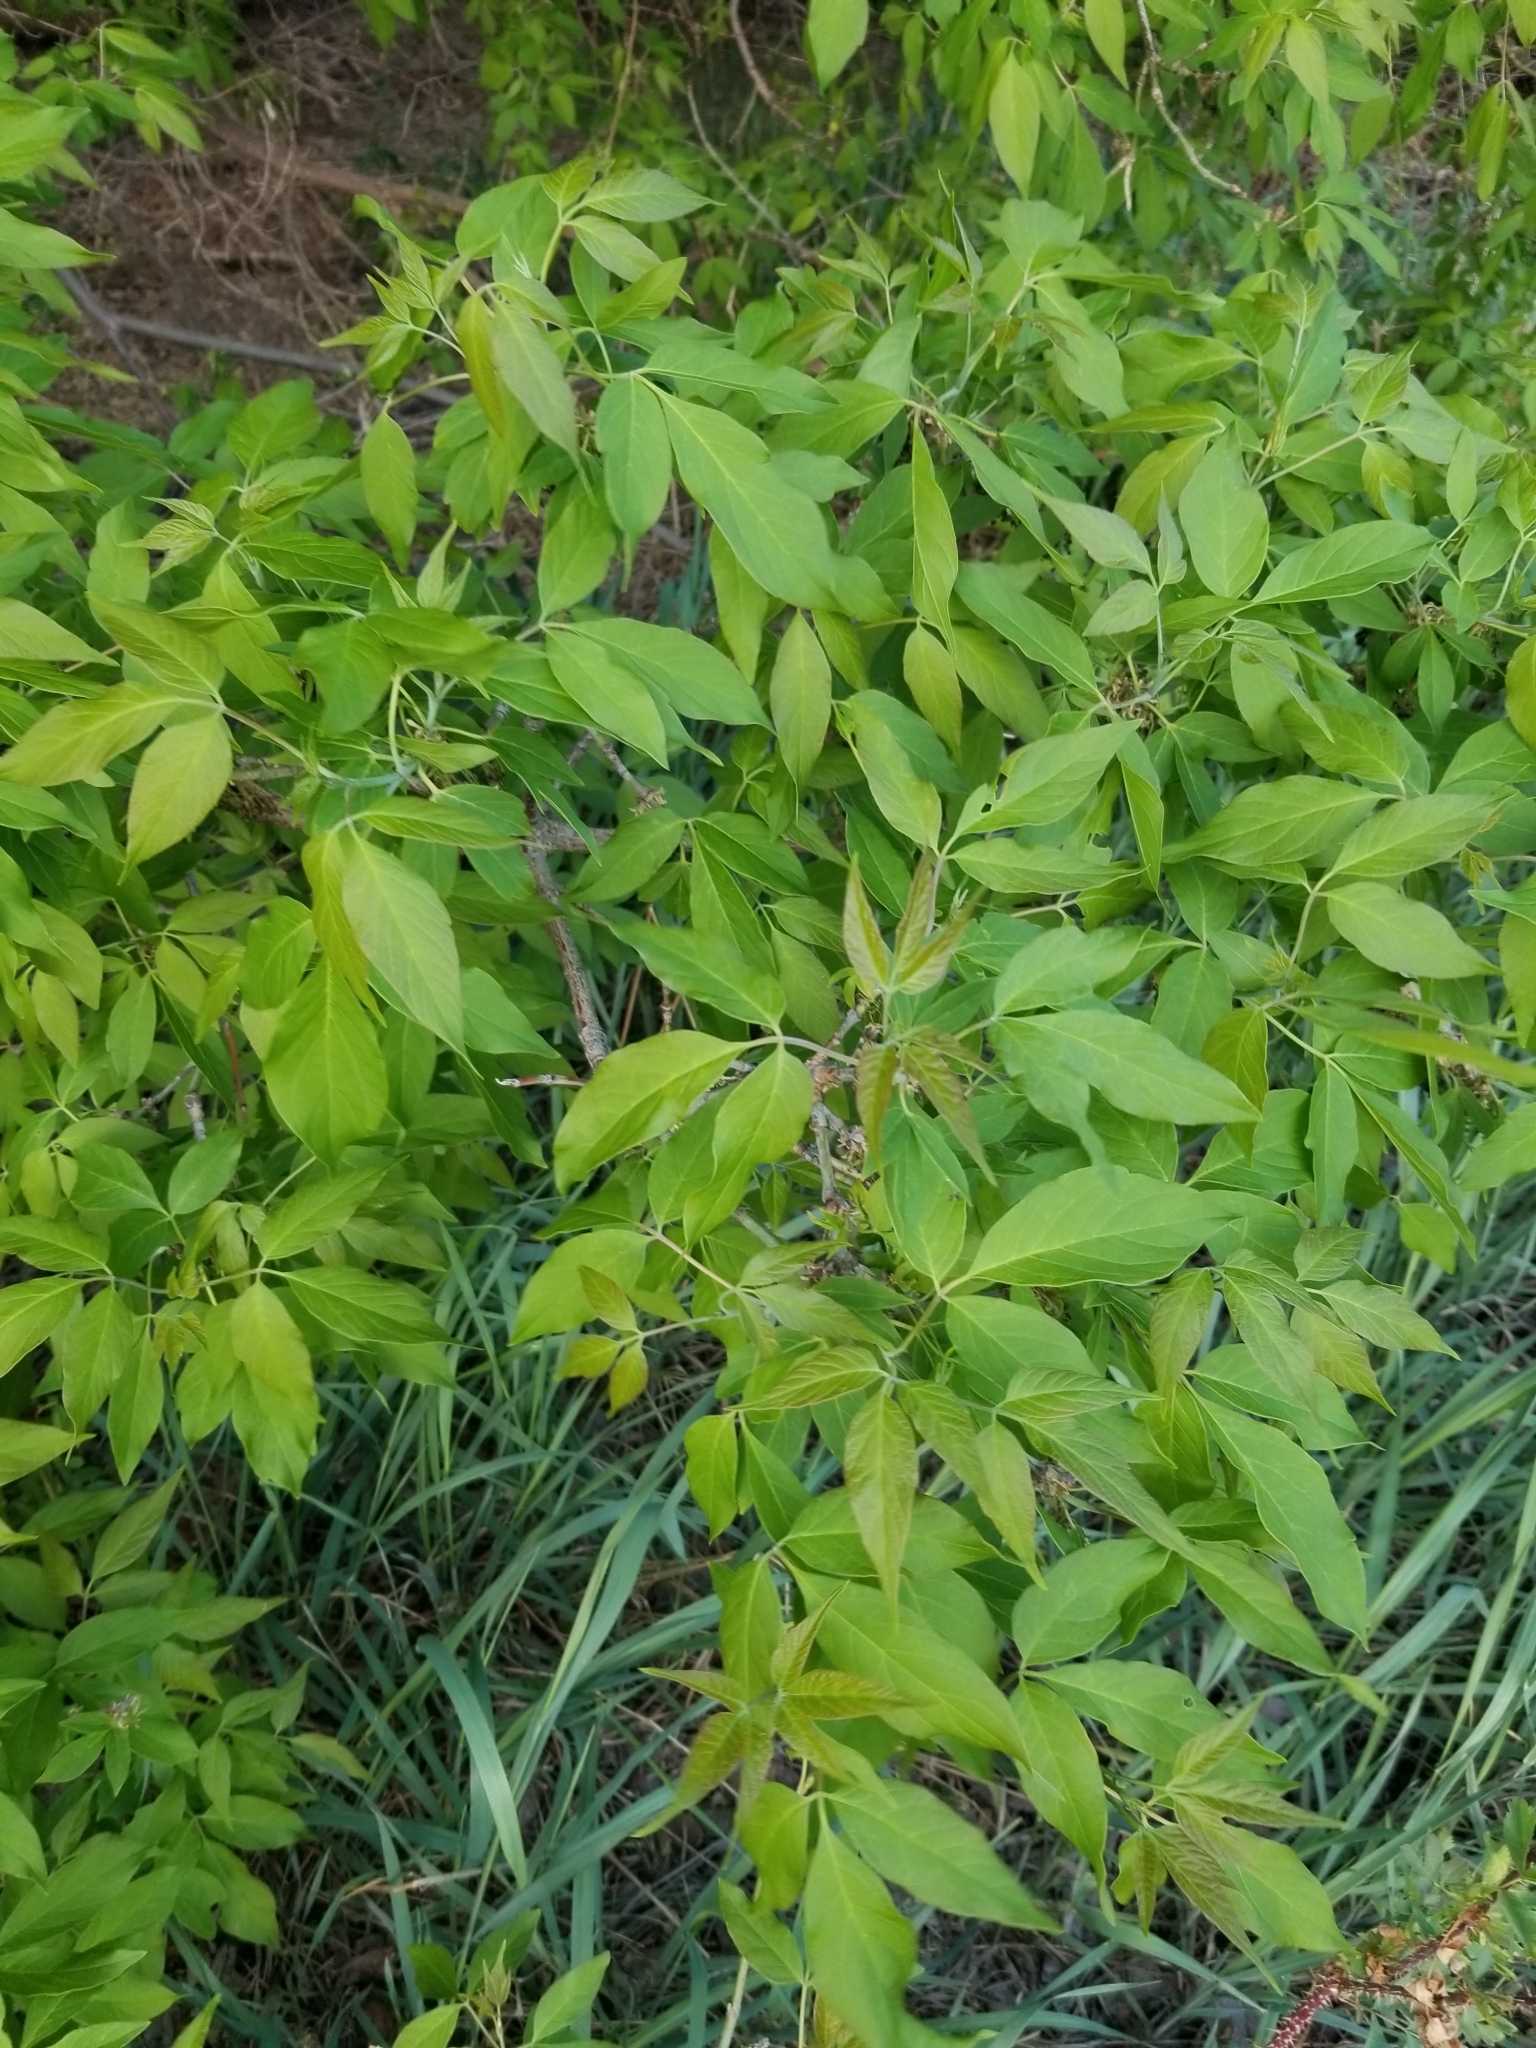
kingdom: Plantae
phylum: Tracheophyta
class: Magnoliopsida
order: Sapindales
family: Sapindaceae
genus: Acer
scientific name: Acer negundo
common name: Ashleaf maple
